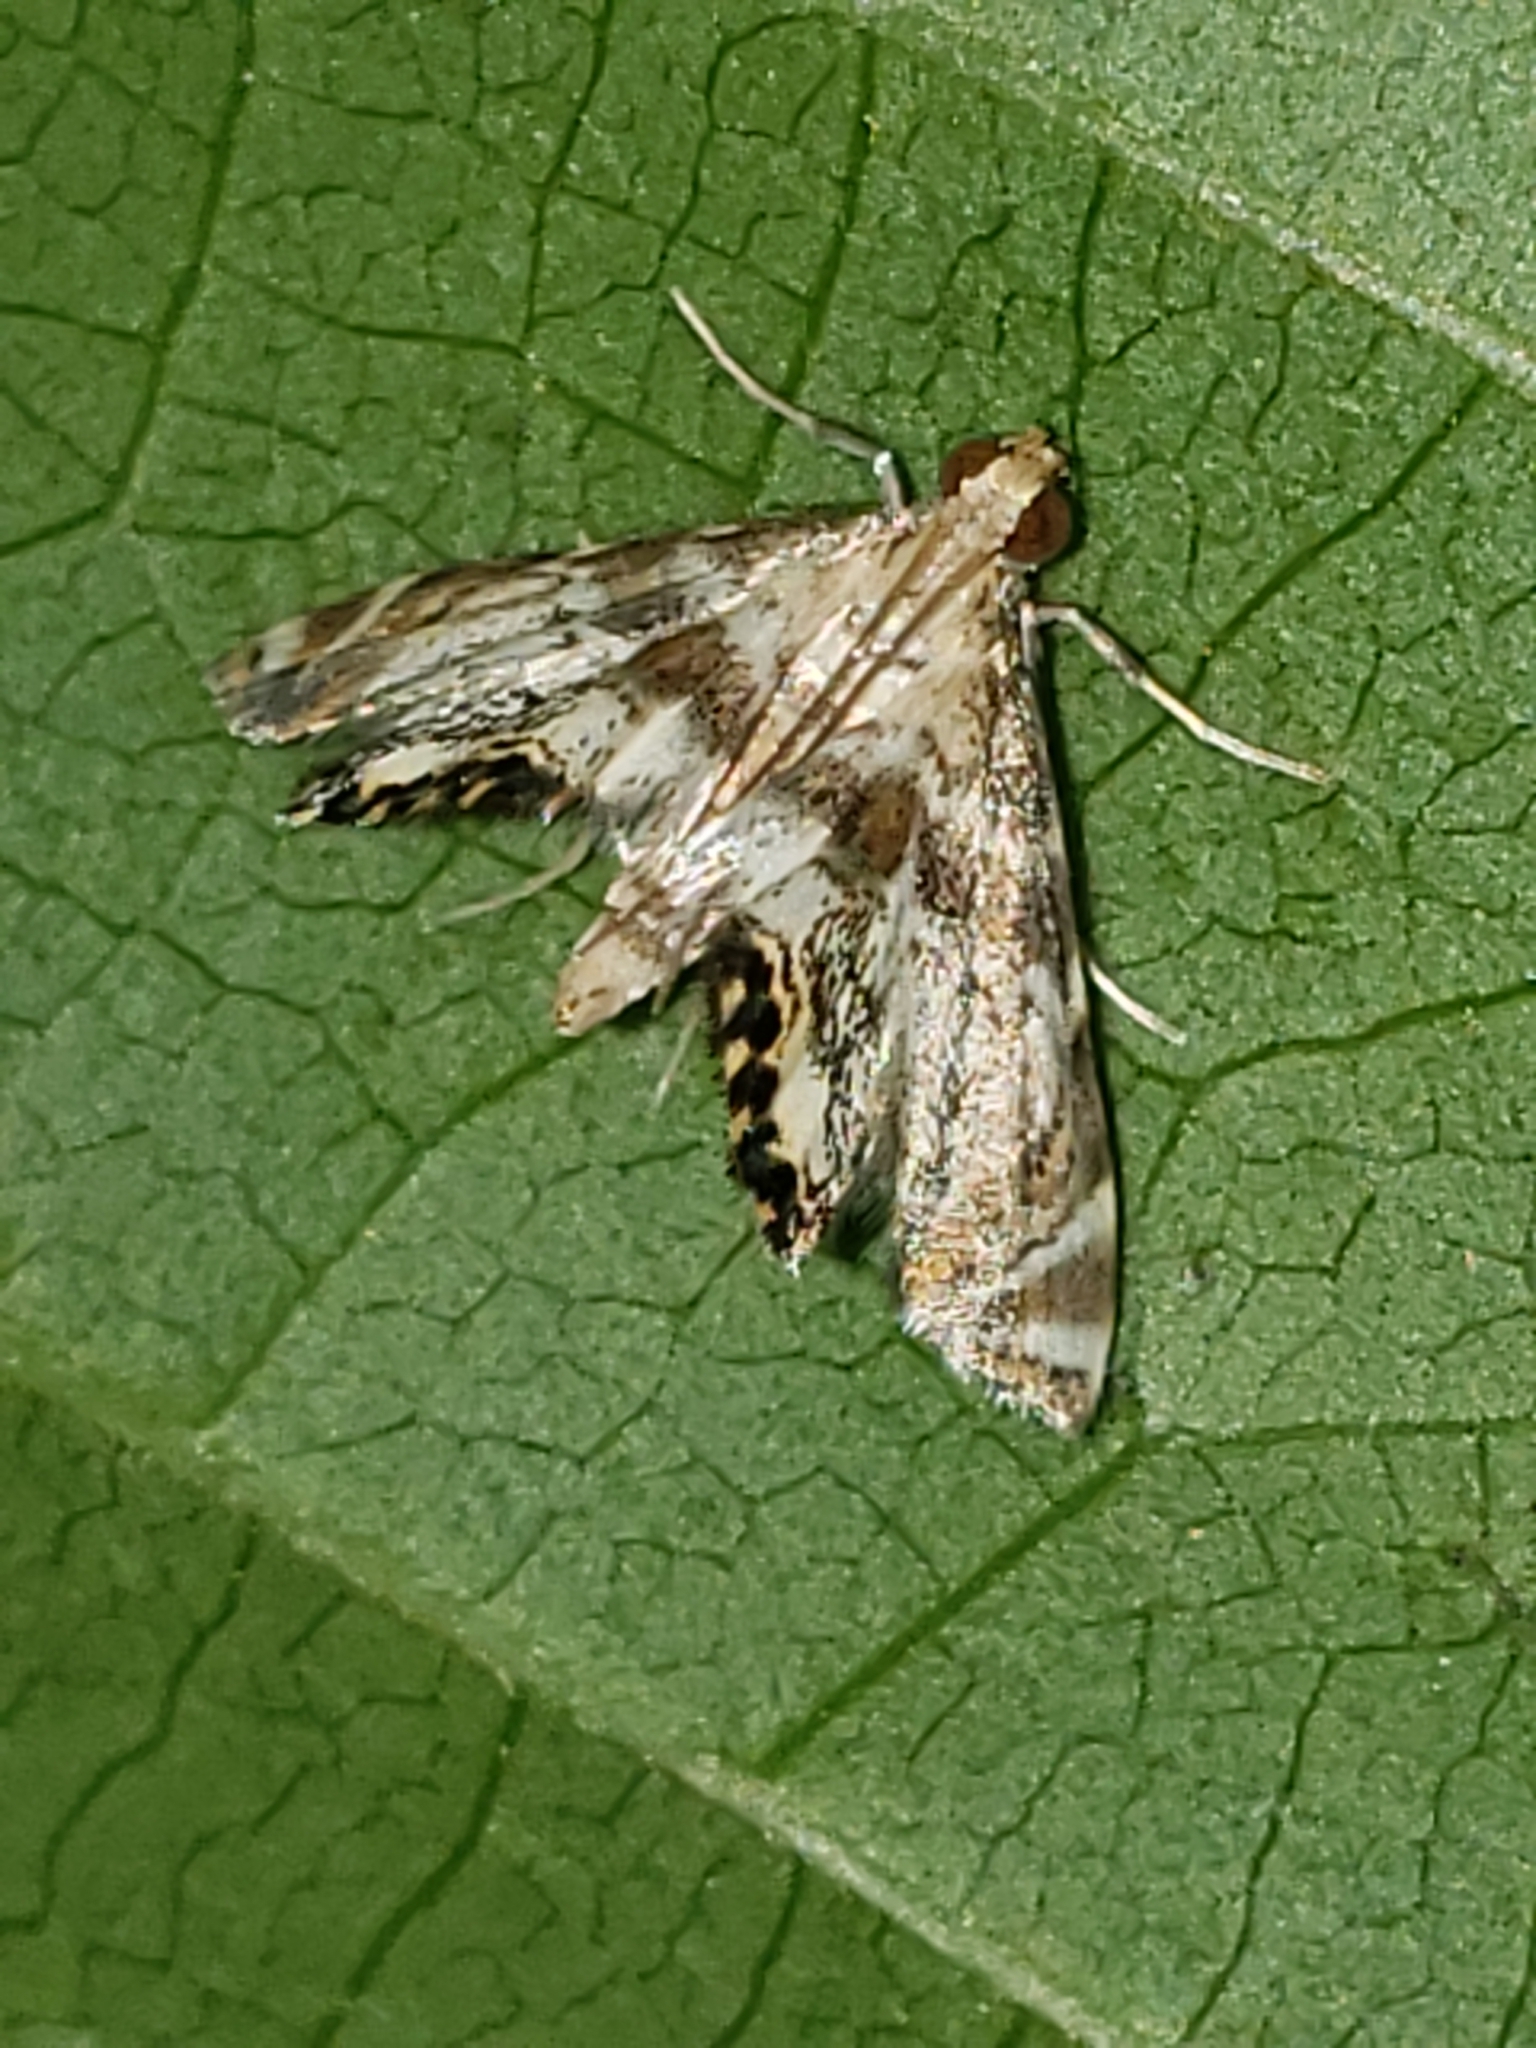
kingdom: Animalia
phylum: Arthropoda
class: Insecta
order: Lepidoptera
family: Crambidae
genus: Petrophila
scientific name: Petrophila fulicalis
